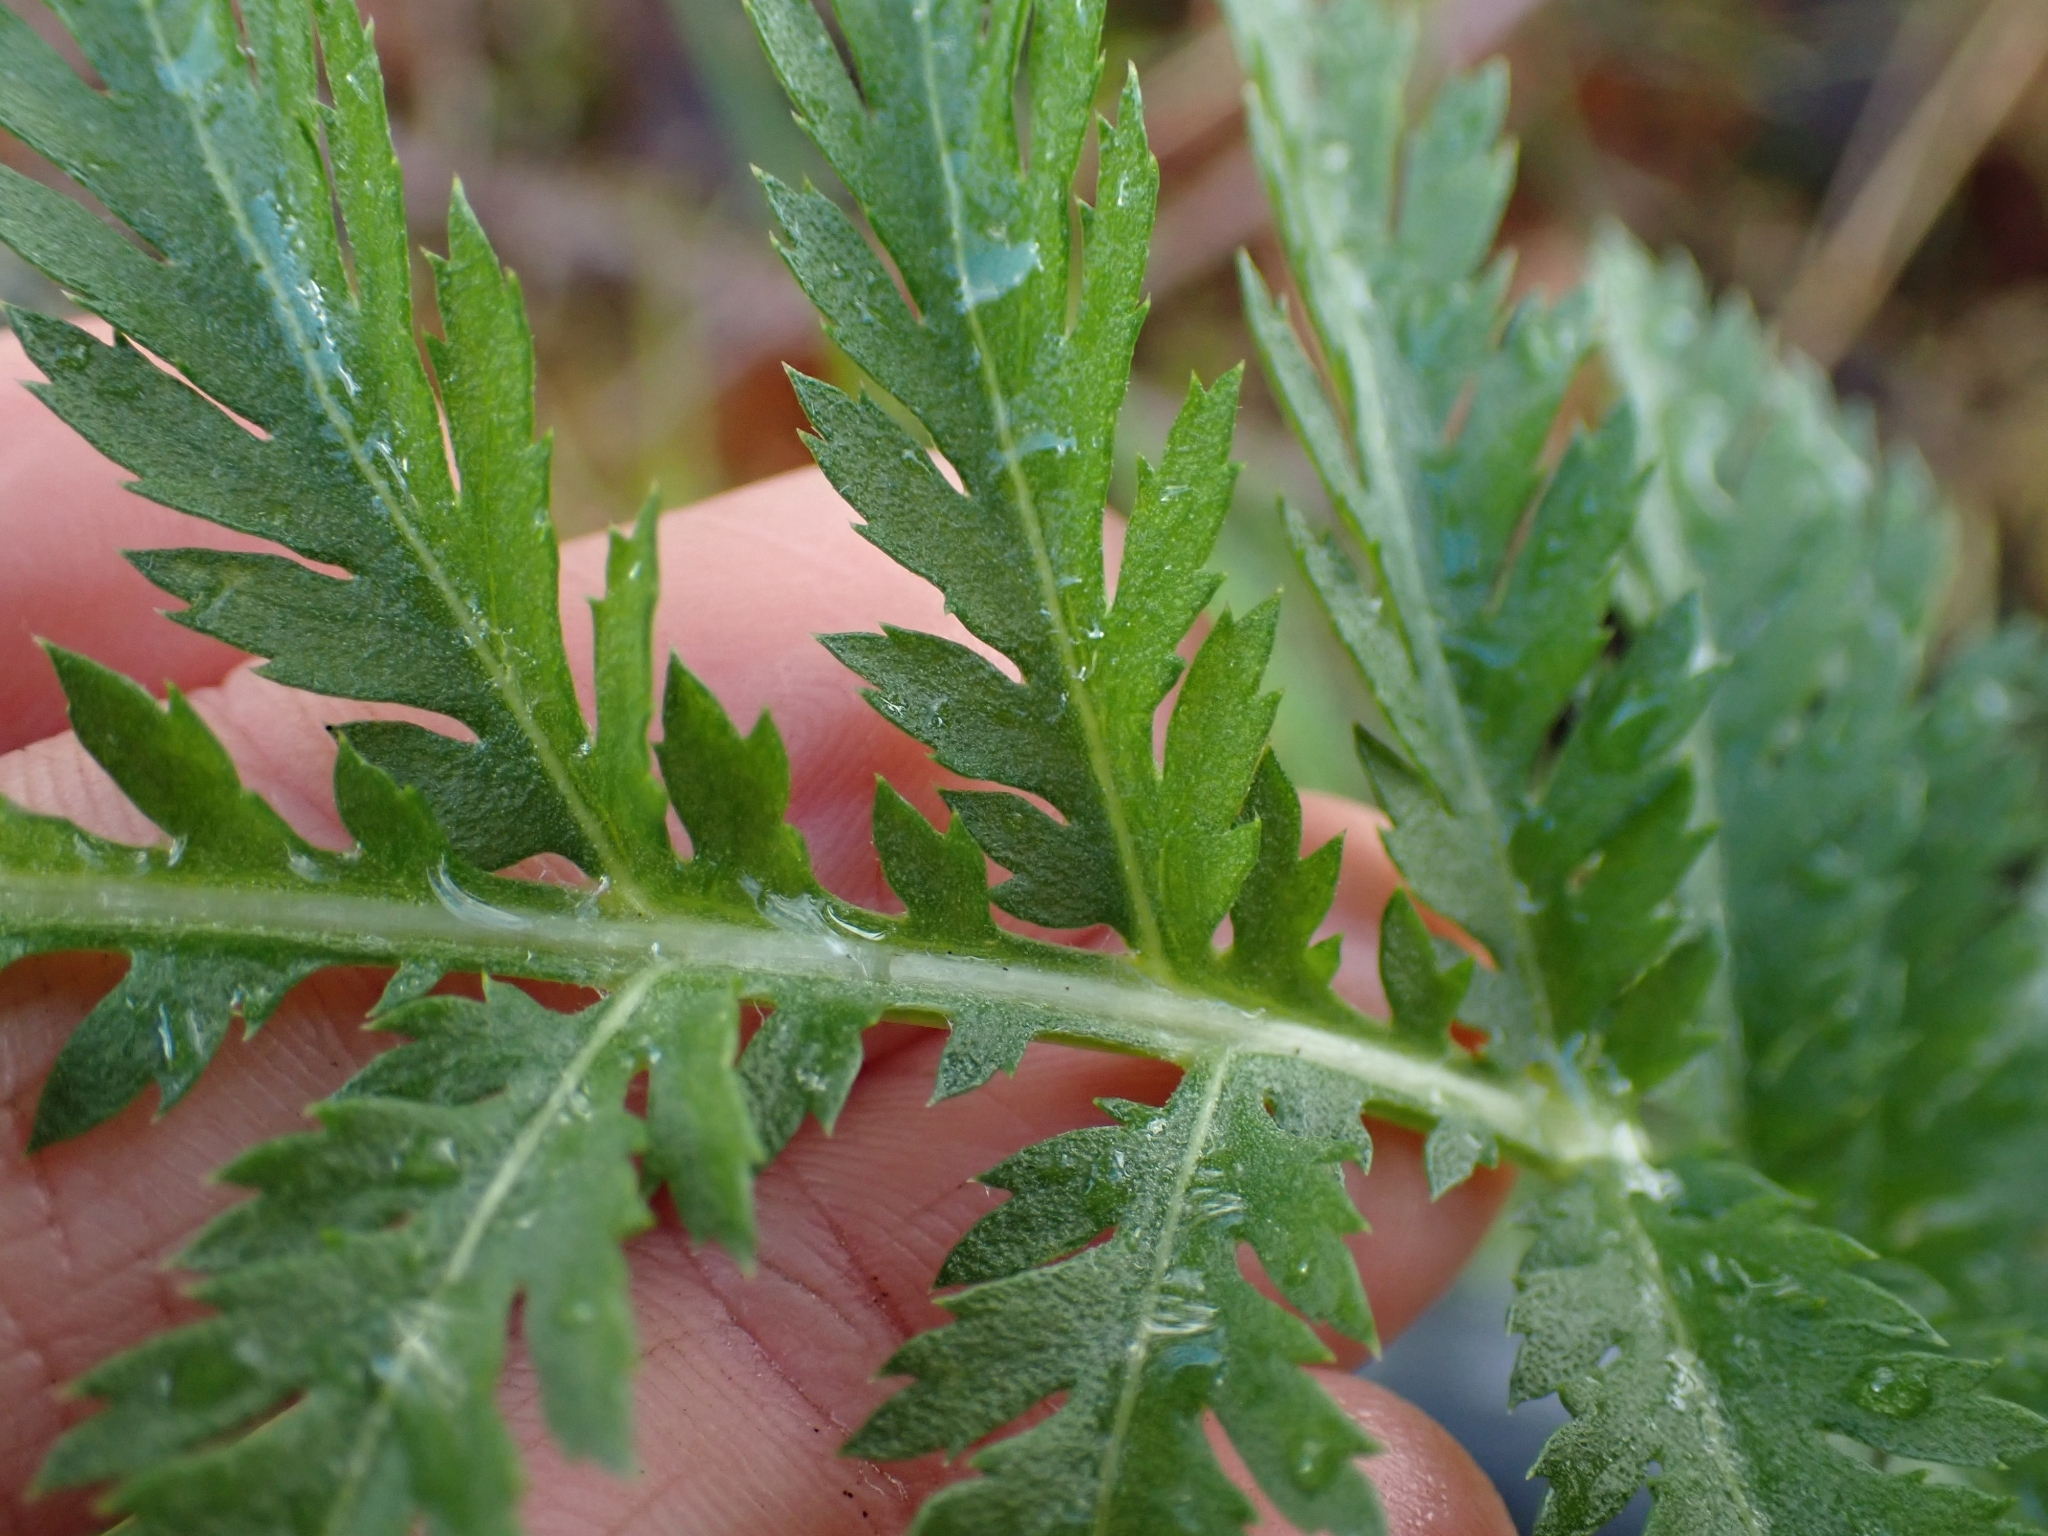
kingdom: Plantae
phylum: Tracheophyta
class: Magnoliopsida
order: Asterales
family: Asteraceae
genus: Tanacetum
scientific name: Tanacetum vulgare
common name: Common tansy
